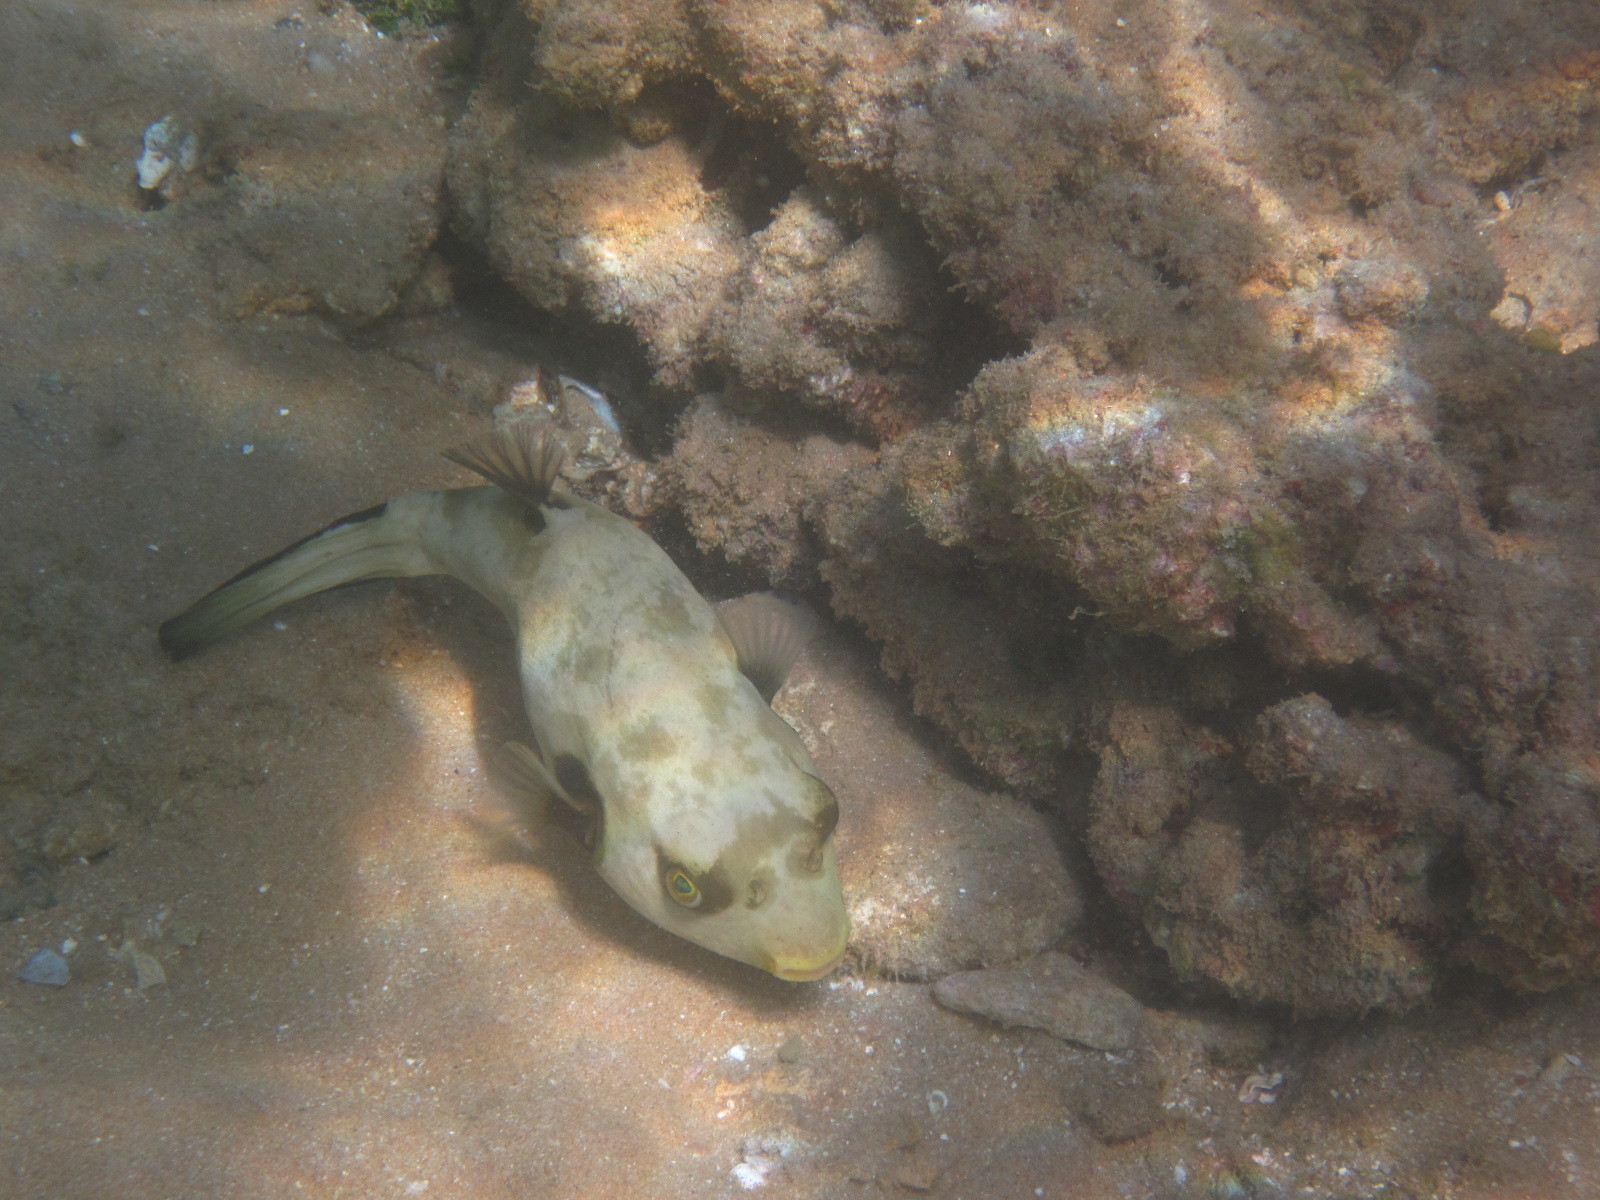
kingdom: Animalia
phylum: Chordata
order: Tetraodontiformes
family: Tetraodontidae
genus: Arothron
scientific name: Arothron immaculatus
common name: Blackedged blaasop
